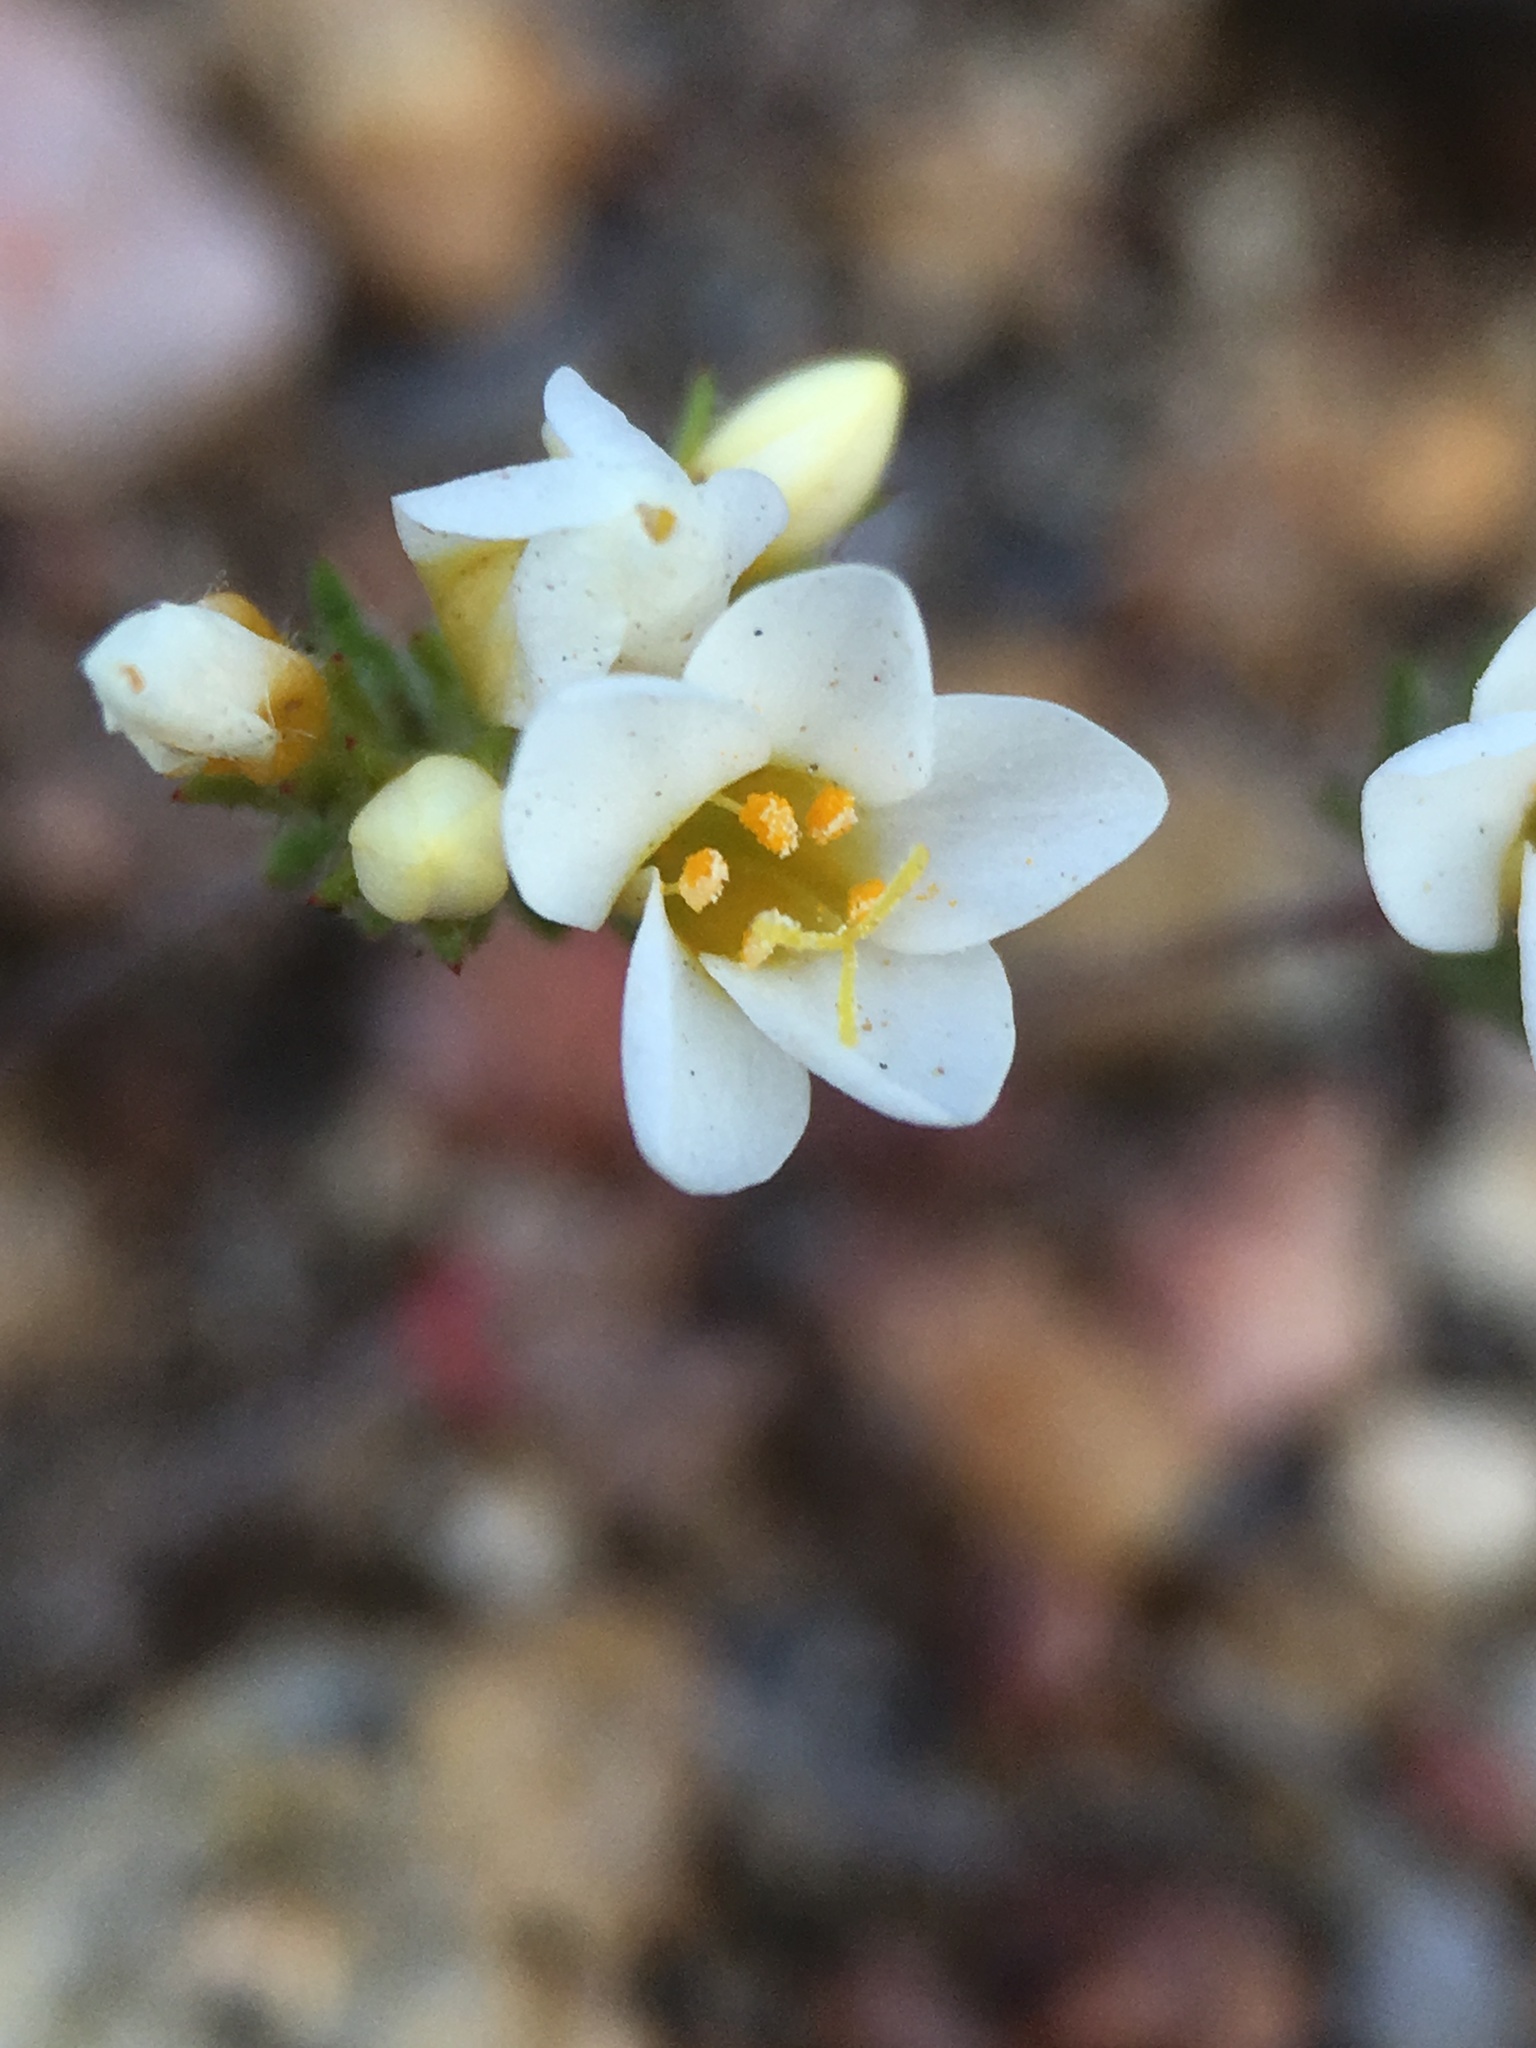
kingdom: Plantae
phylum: Tracheophyta
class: Magnoliopsida
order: Ericales
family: Polemoniaceae
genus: Leptosiphon
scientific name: Leptosiphon lemmonii
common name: Lemmon's linanthus
